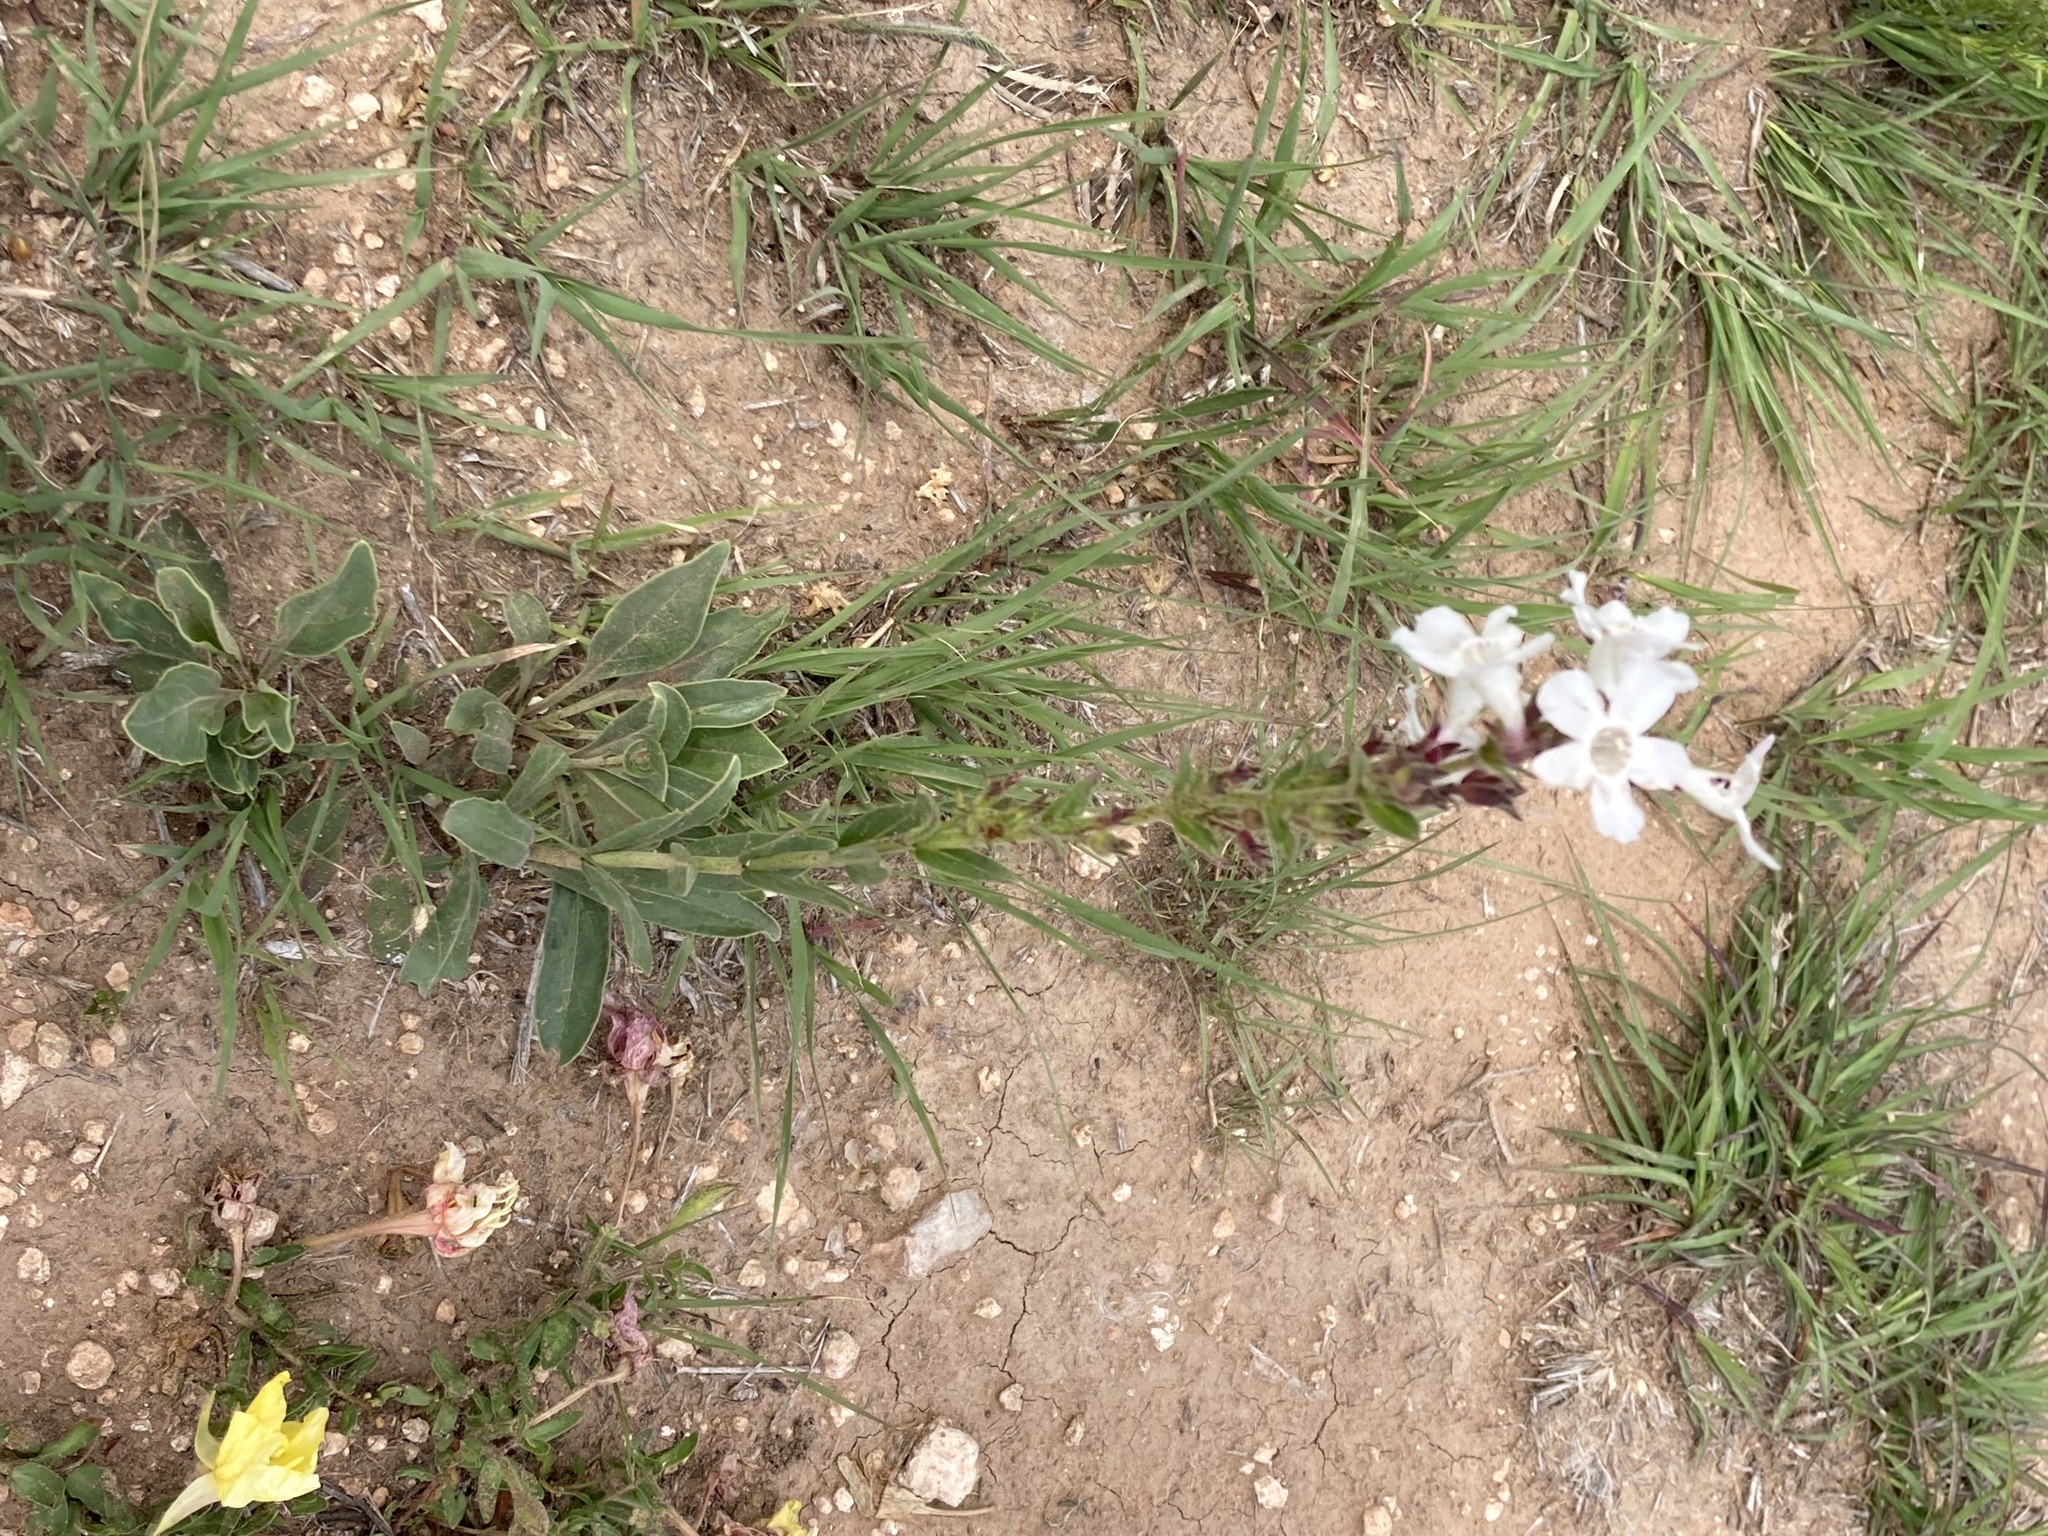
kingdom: Plantae
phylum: Tracheophyta
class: Magnoliopsida
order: Lamiales
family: Plantaginaceae
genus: Penstemon
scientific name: Penstemon albidus
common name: White beardtongue
